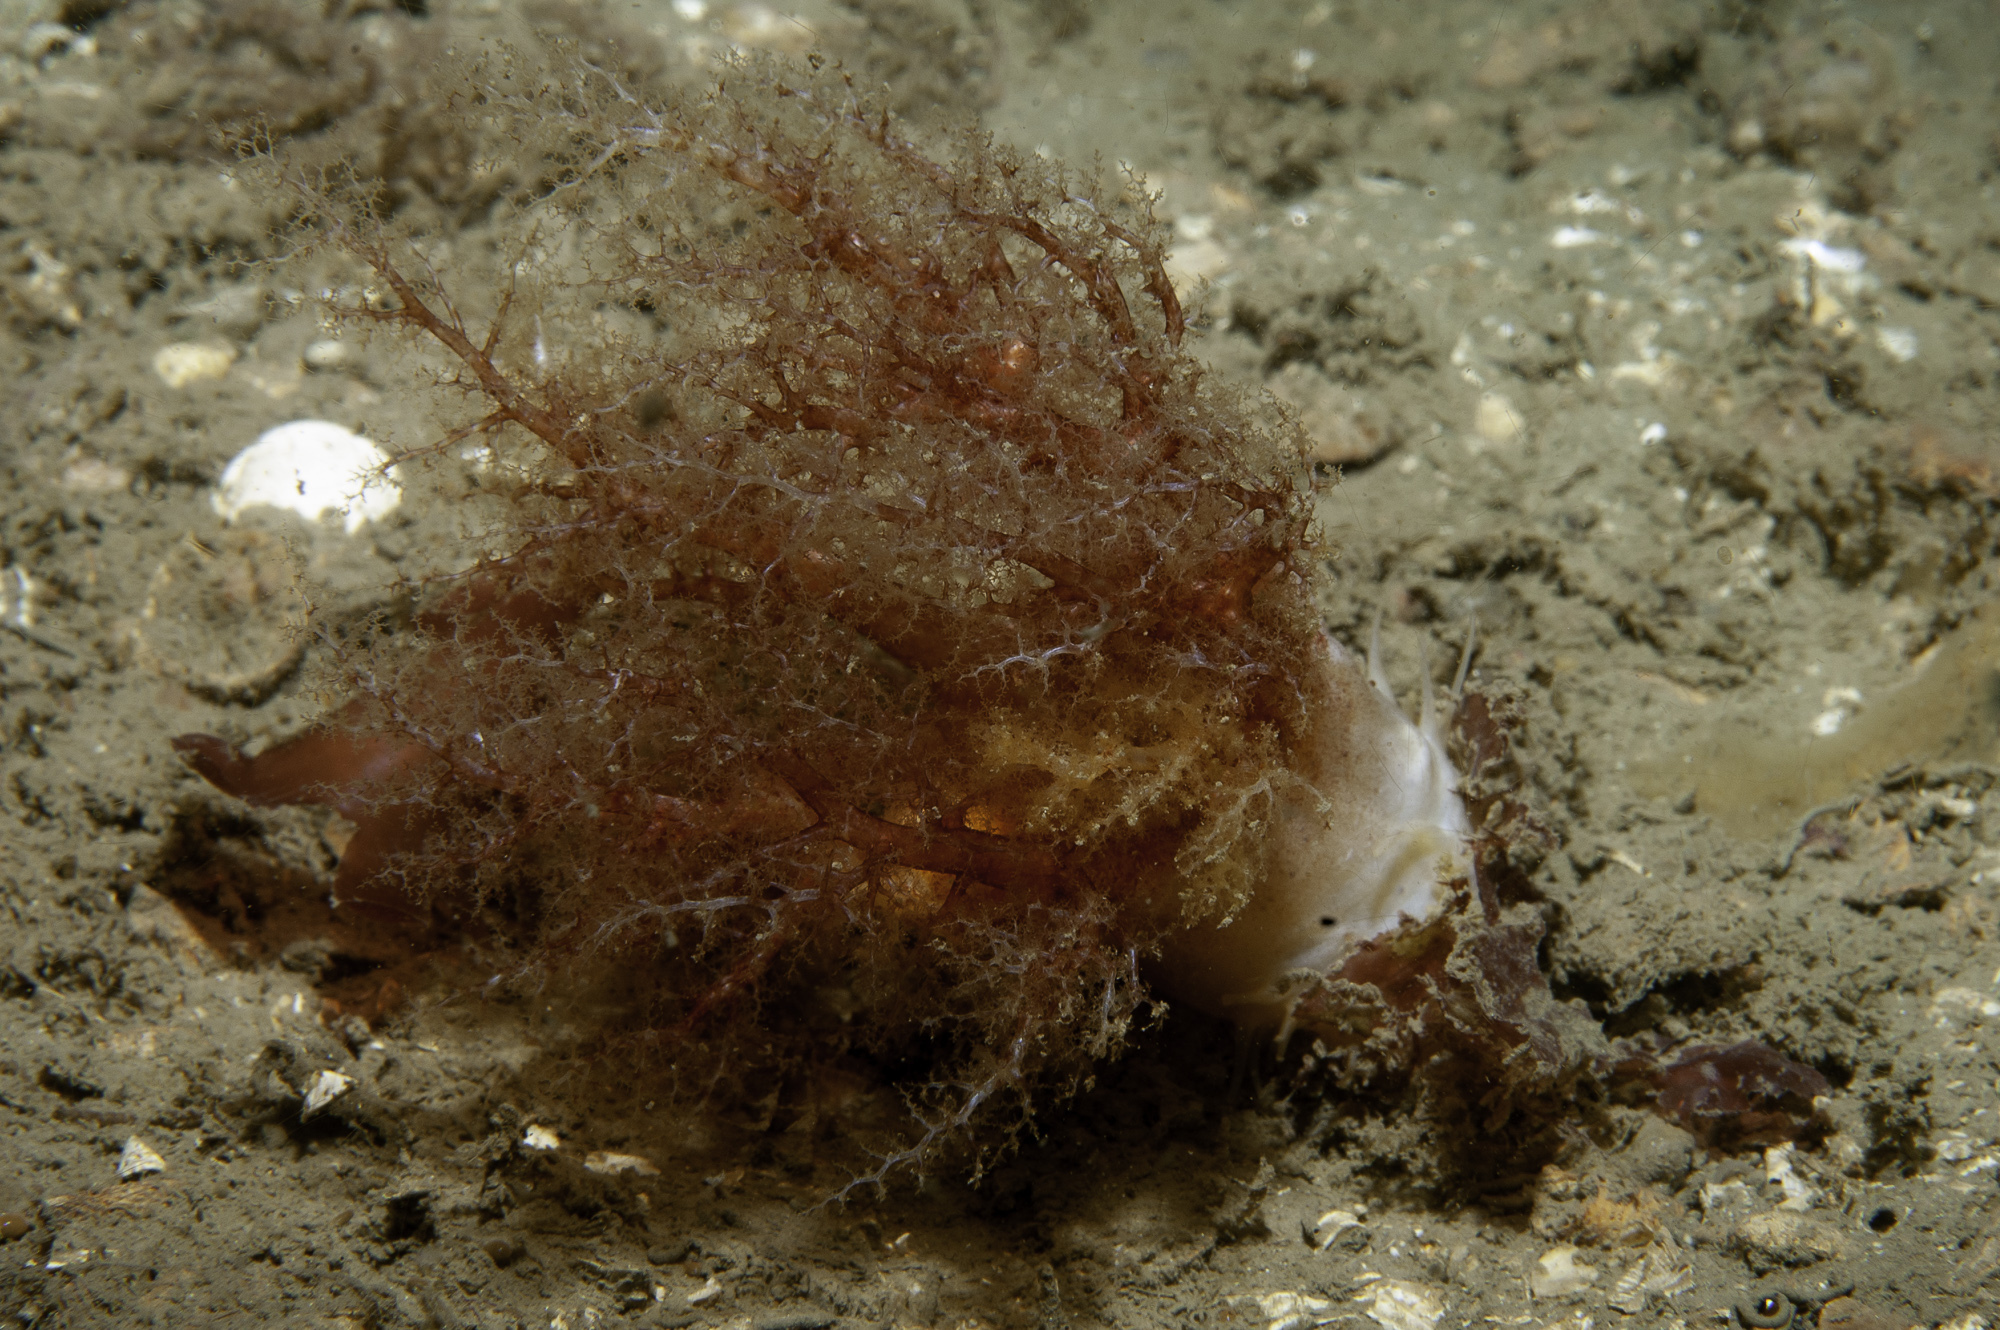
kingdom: Animalia
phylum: Echinodermata
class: Holothuroidea
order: Dendrochirotida
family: Cucumariidae
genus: Thyonidium
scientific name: Thyonidium drummondii
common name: Drummond's sea cucumber
